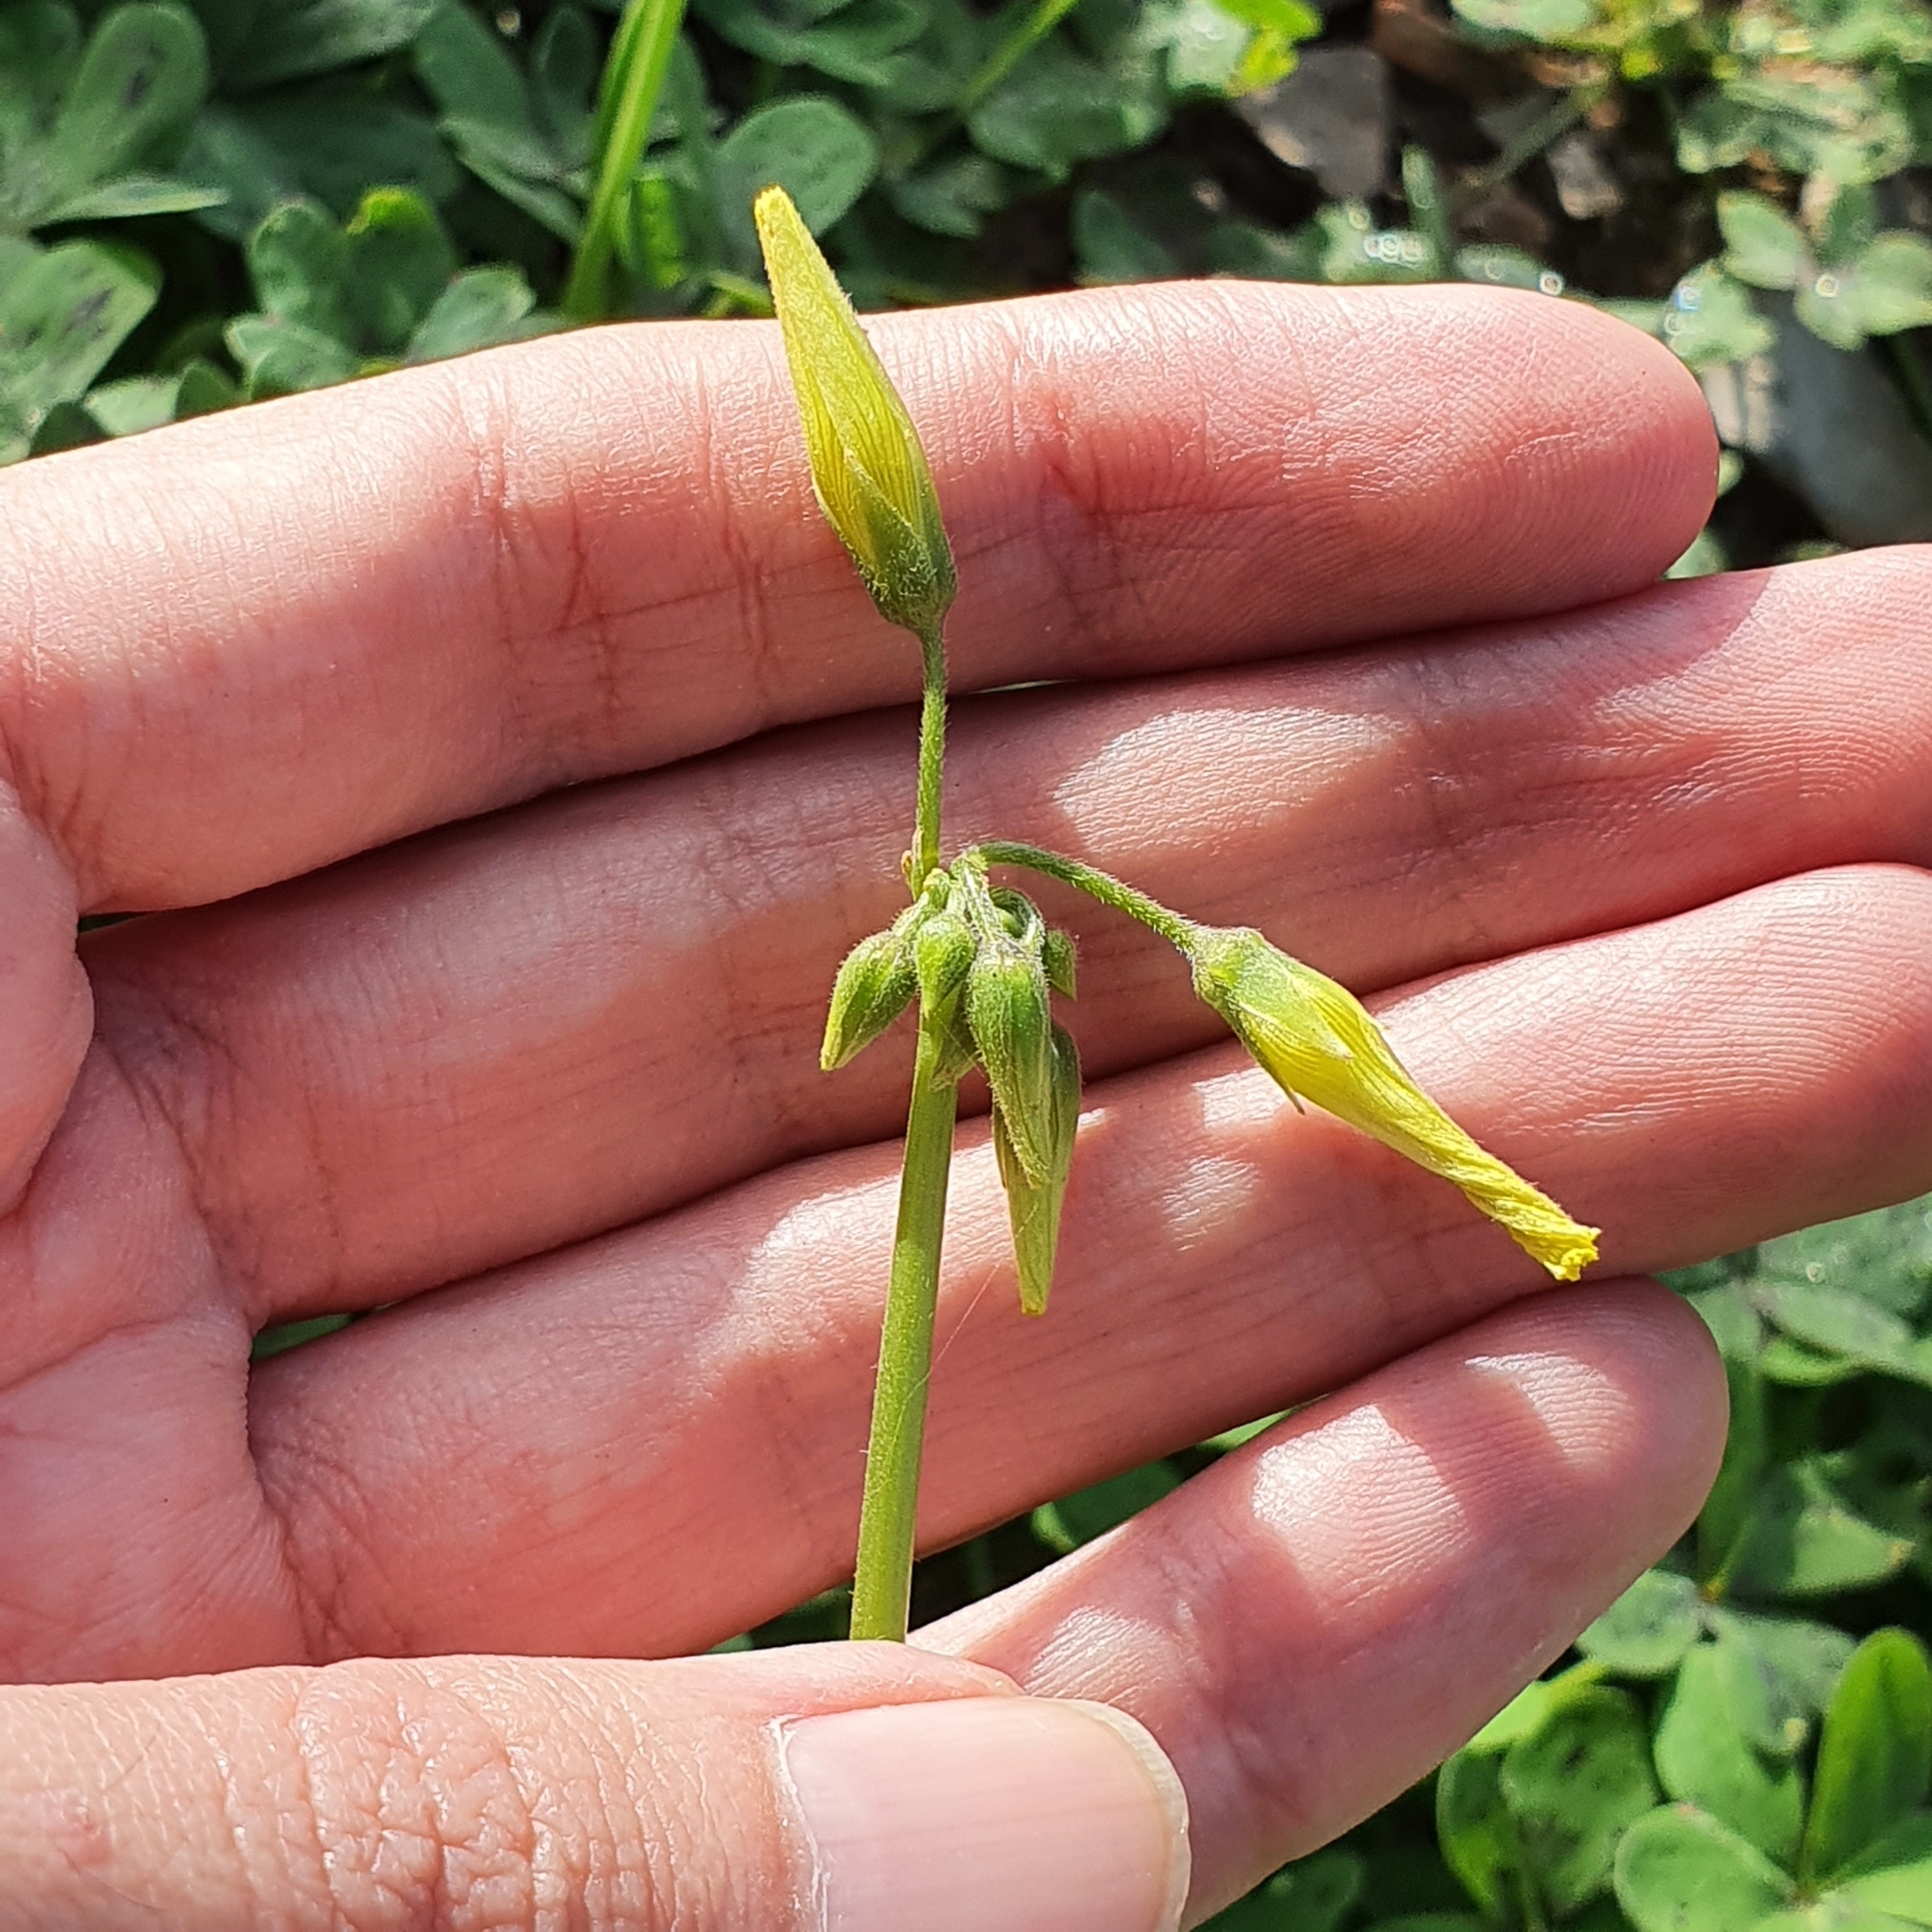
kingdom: Plantae
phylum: Tracheophyta
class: Magnoliopsida
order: Oxalidales
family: Oxalidaceae
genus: Oxalis
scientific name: Oxalis pes-caprae
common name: Bermuda-buttercup
